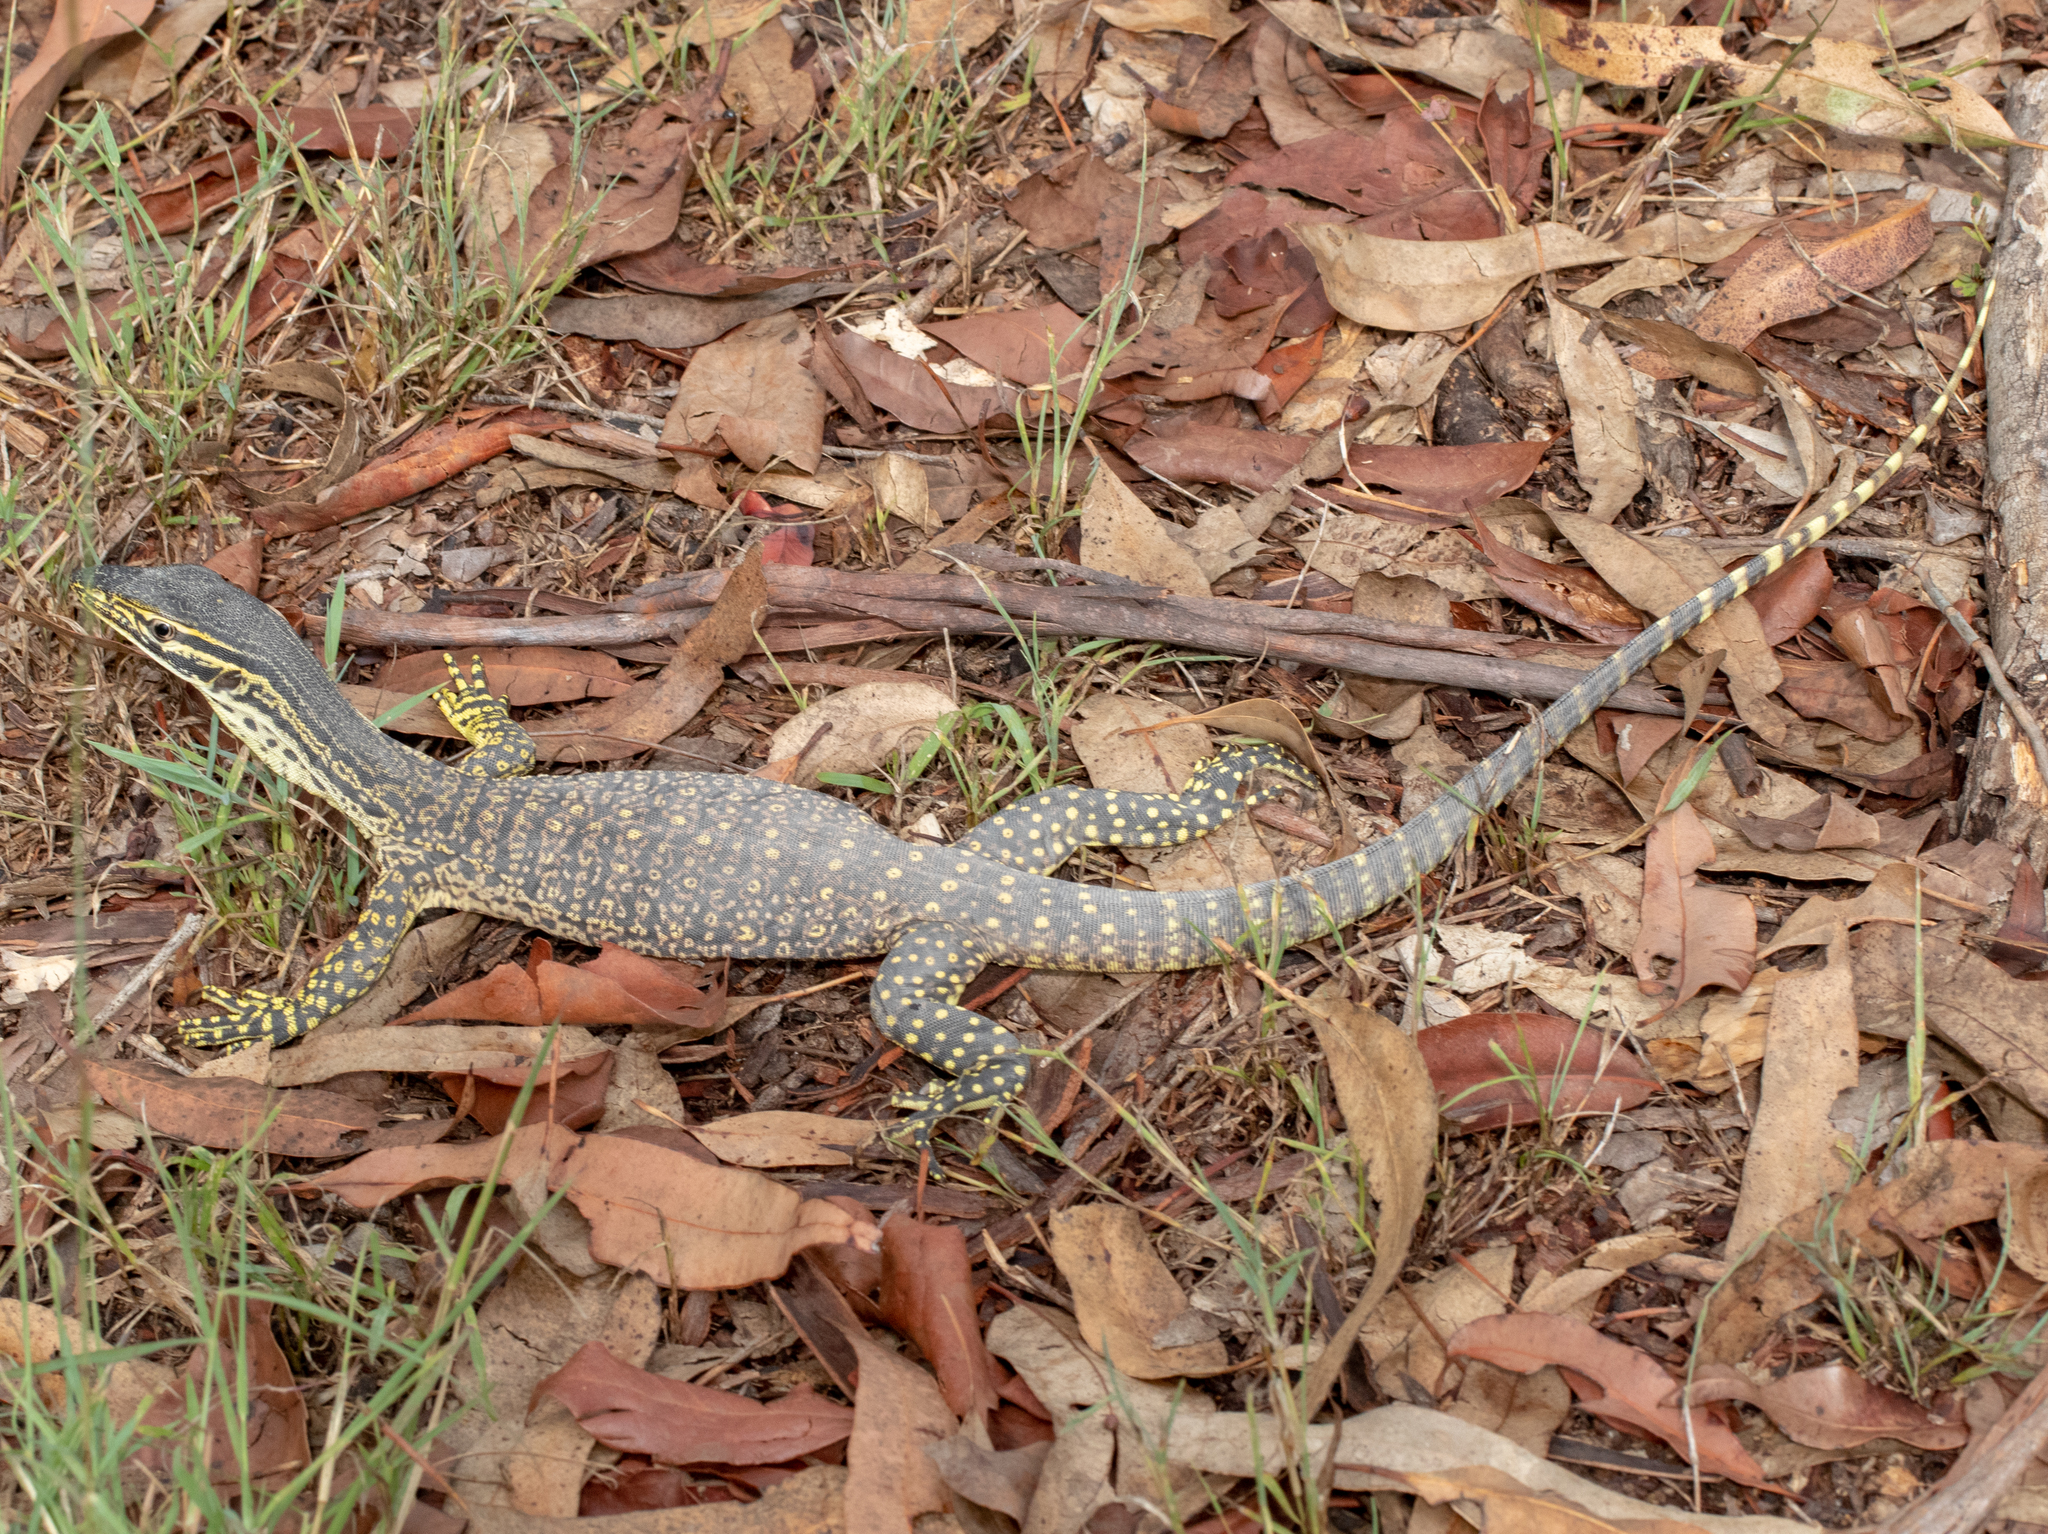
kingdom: Animalia
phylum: Chordata
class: Squamata
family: Varanidae
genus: Varanus
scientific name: Varanus panoptes
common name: Yellow-spotted monitor
